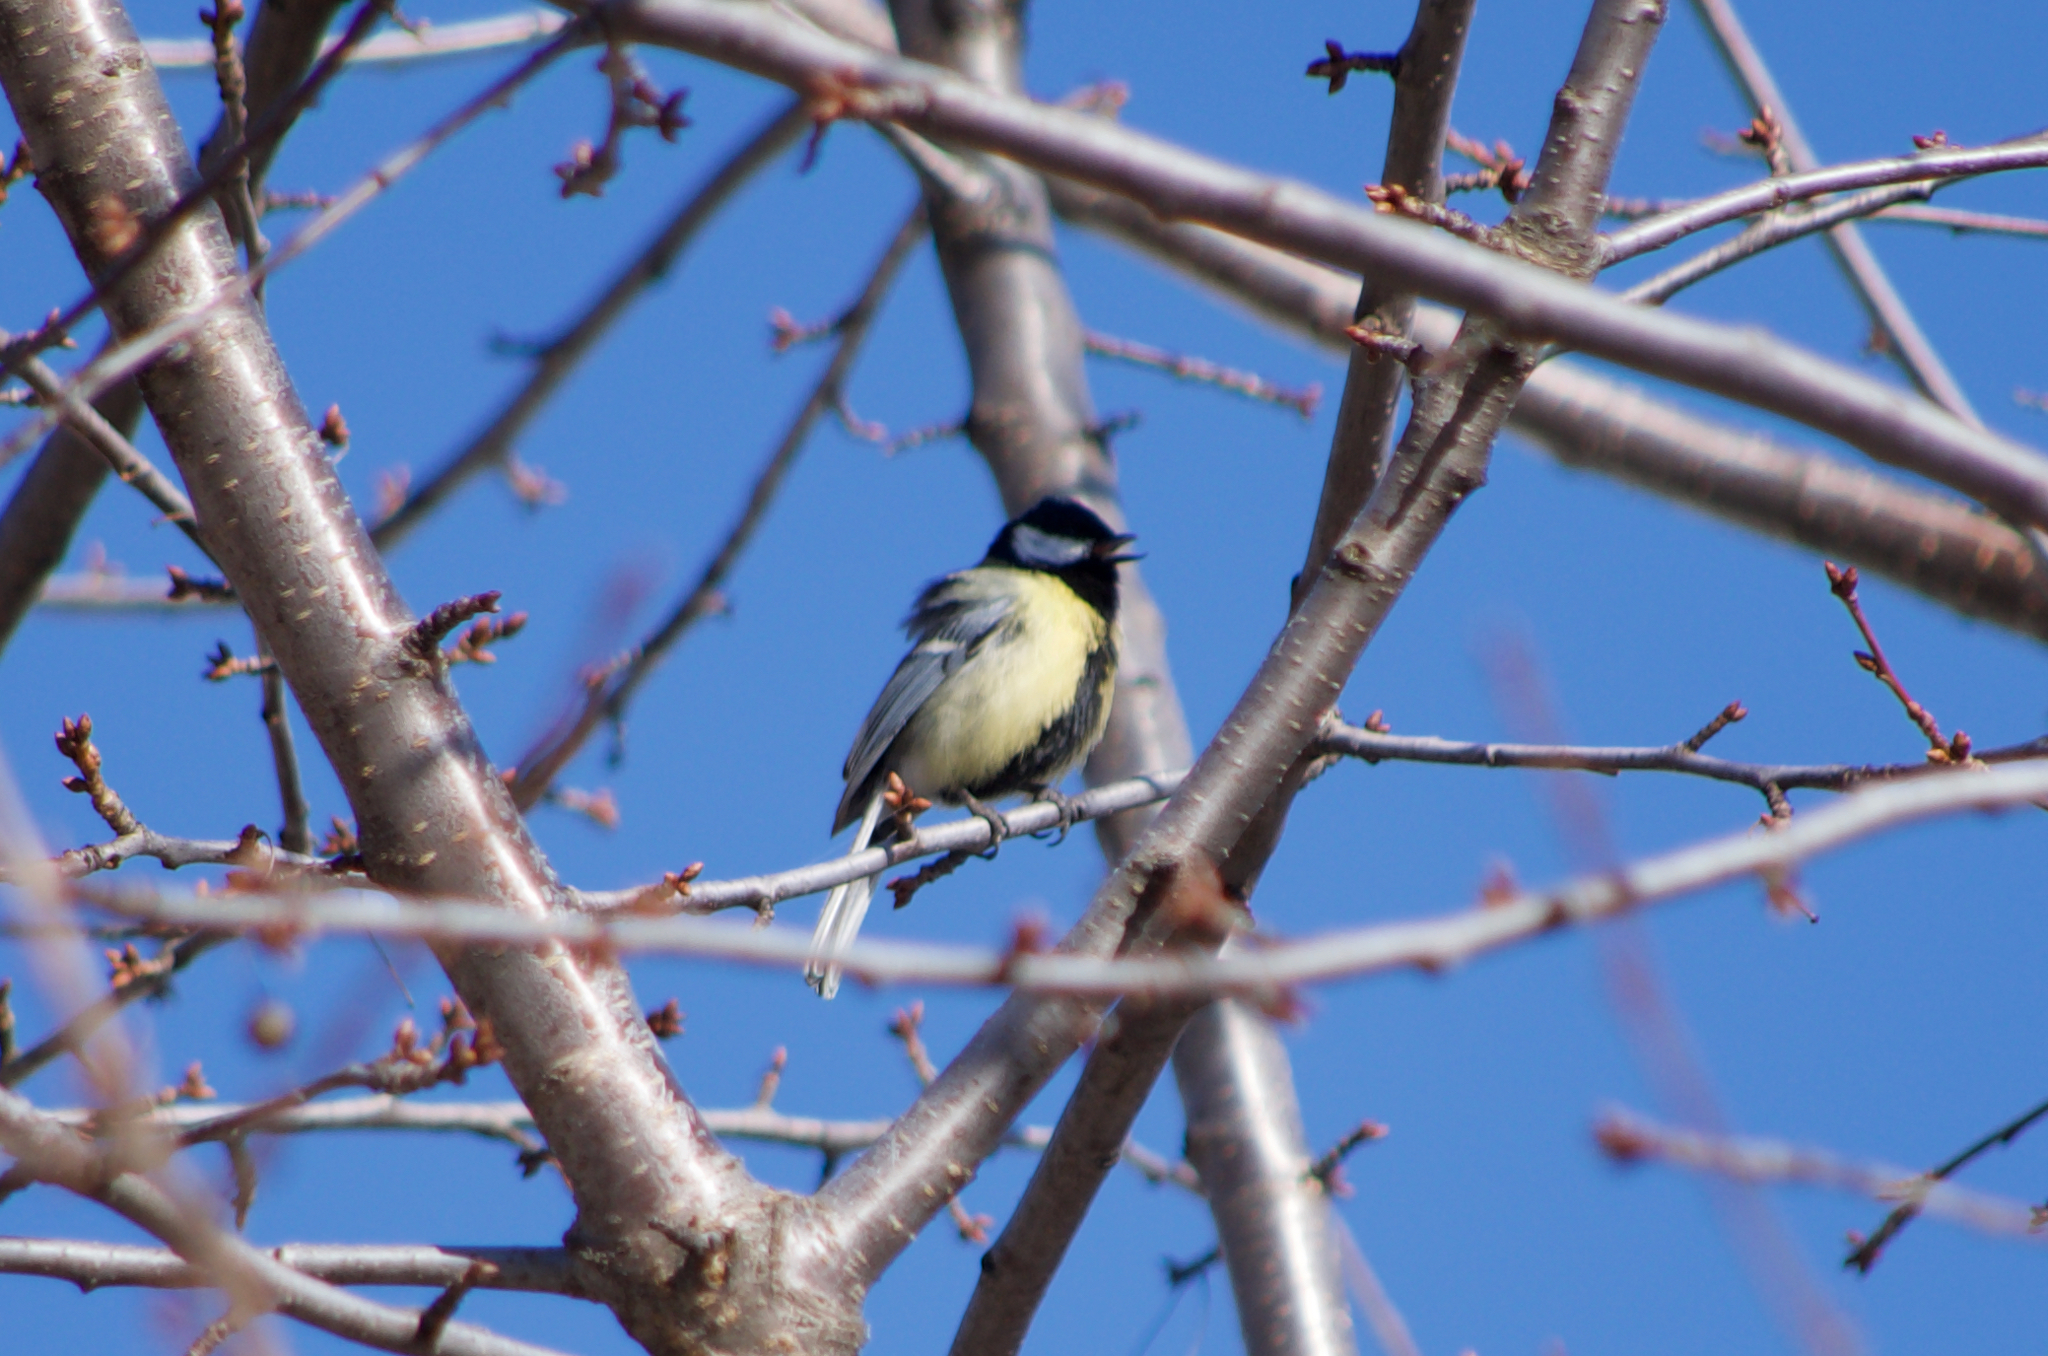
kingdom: Animalia
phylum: Chordata
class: Aves
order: Passeriformes
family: Paridae
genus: Parus
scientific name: Parus major
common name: Great tit
